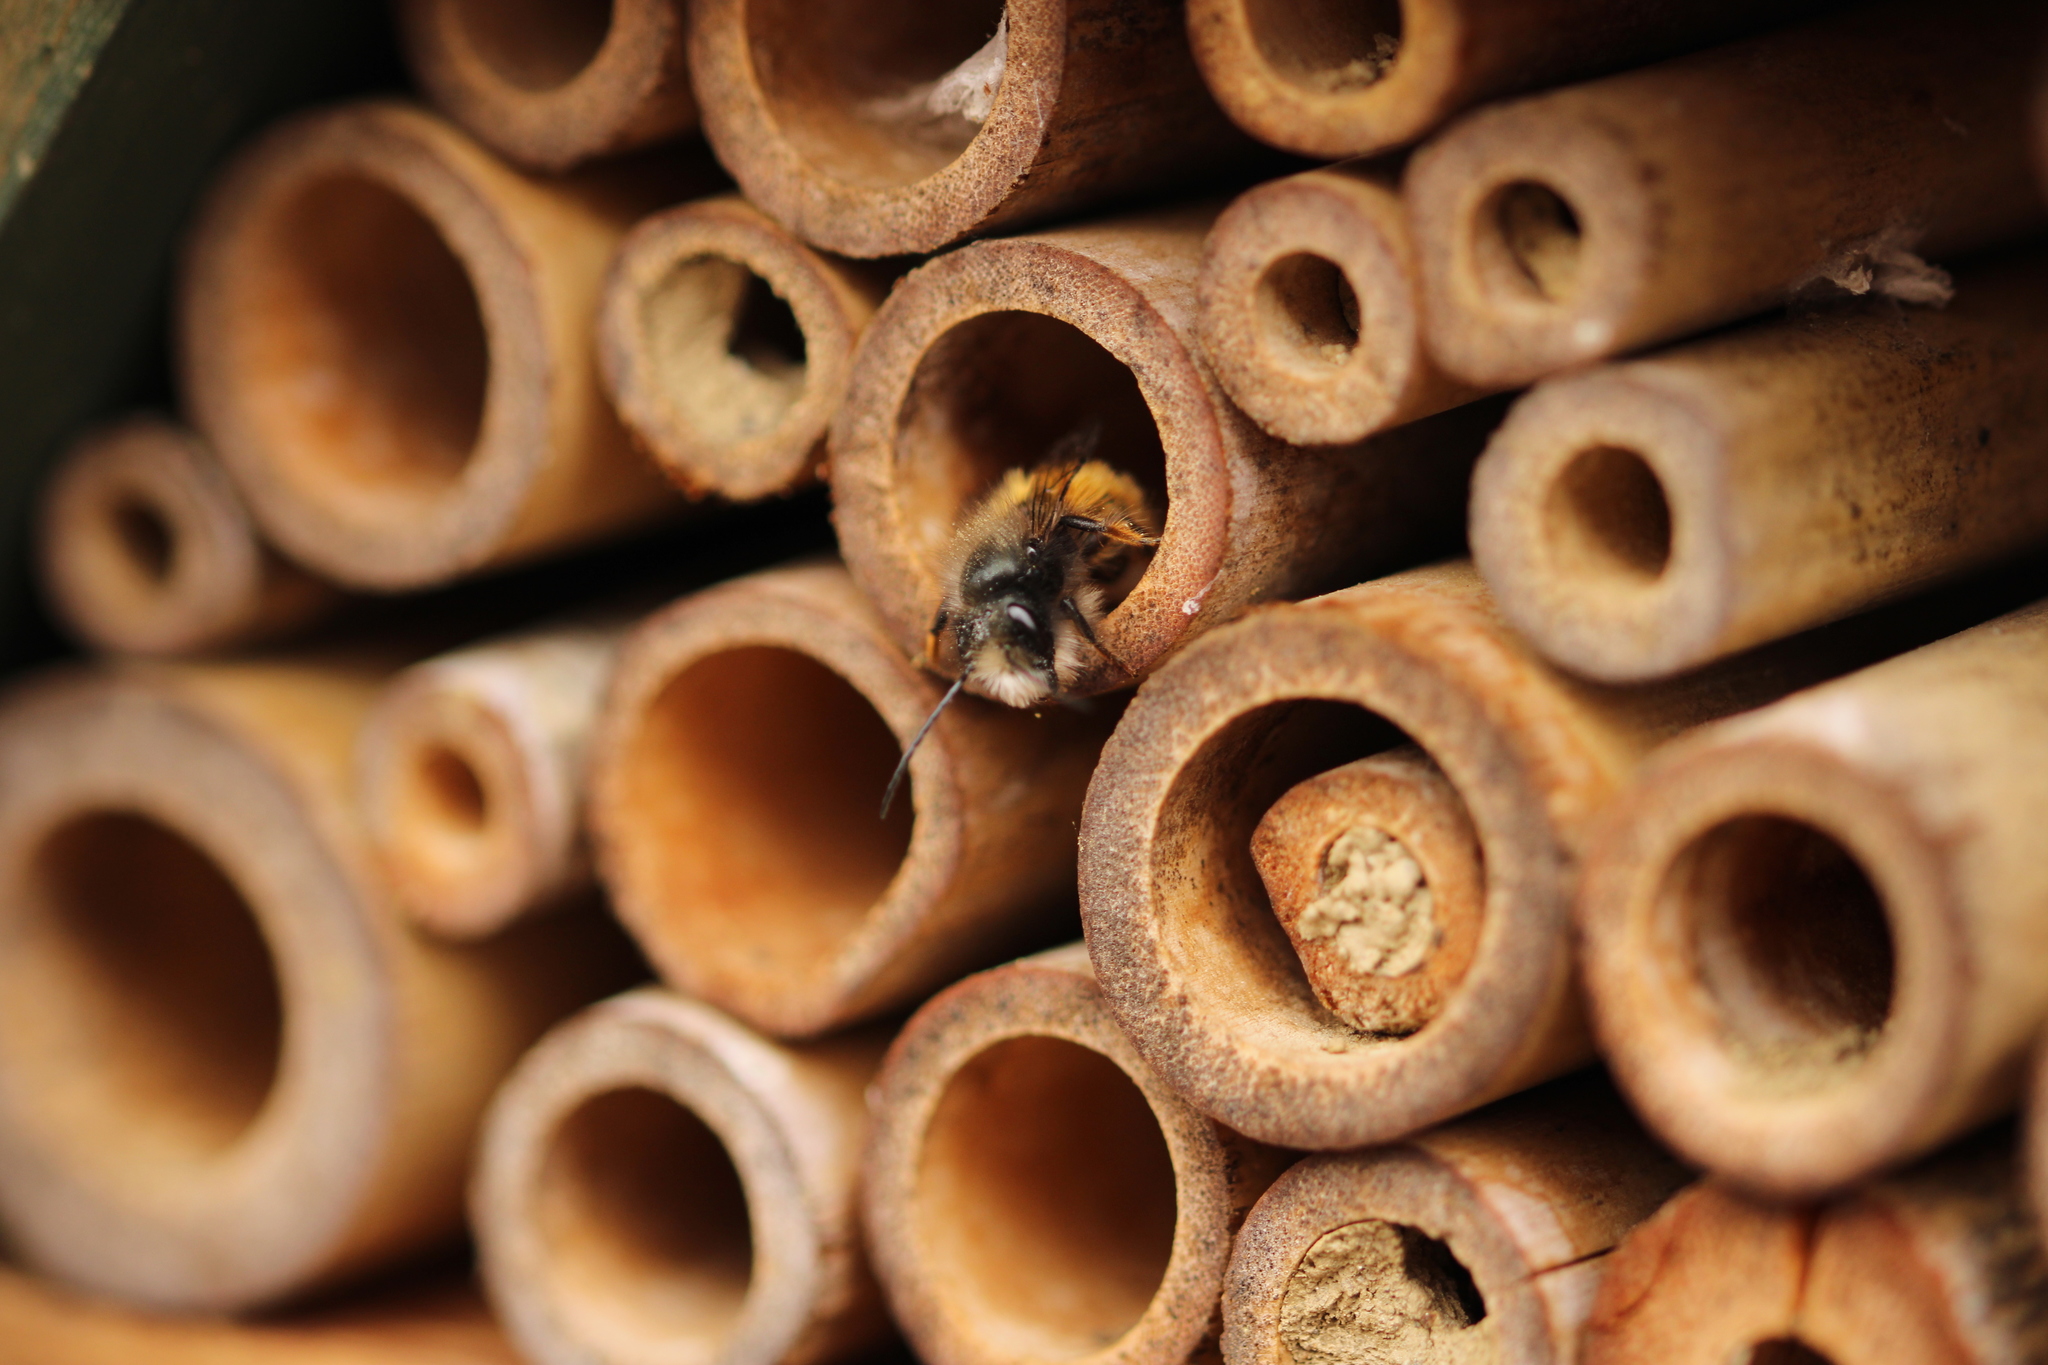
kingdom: Animalia
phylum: Arthropoda
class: Insecta
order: Hymenoptera
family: Megachilidae
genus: Osmia
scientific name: Osmia cornuta
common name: Mason bee
